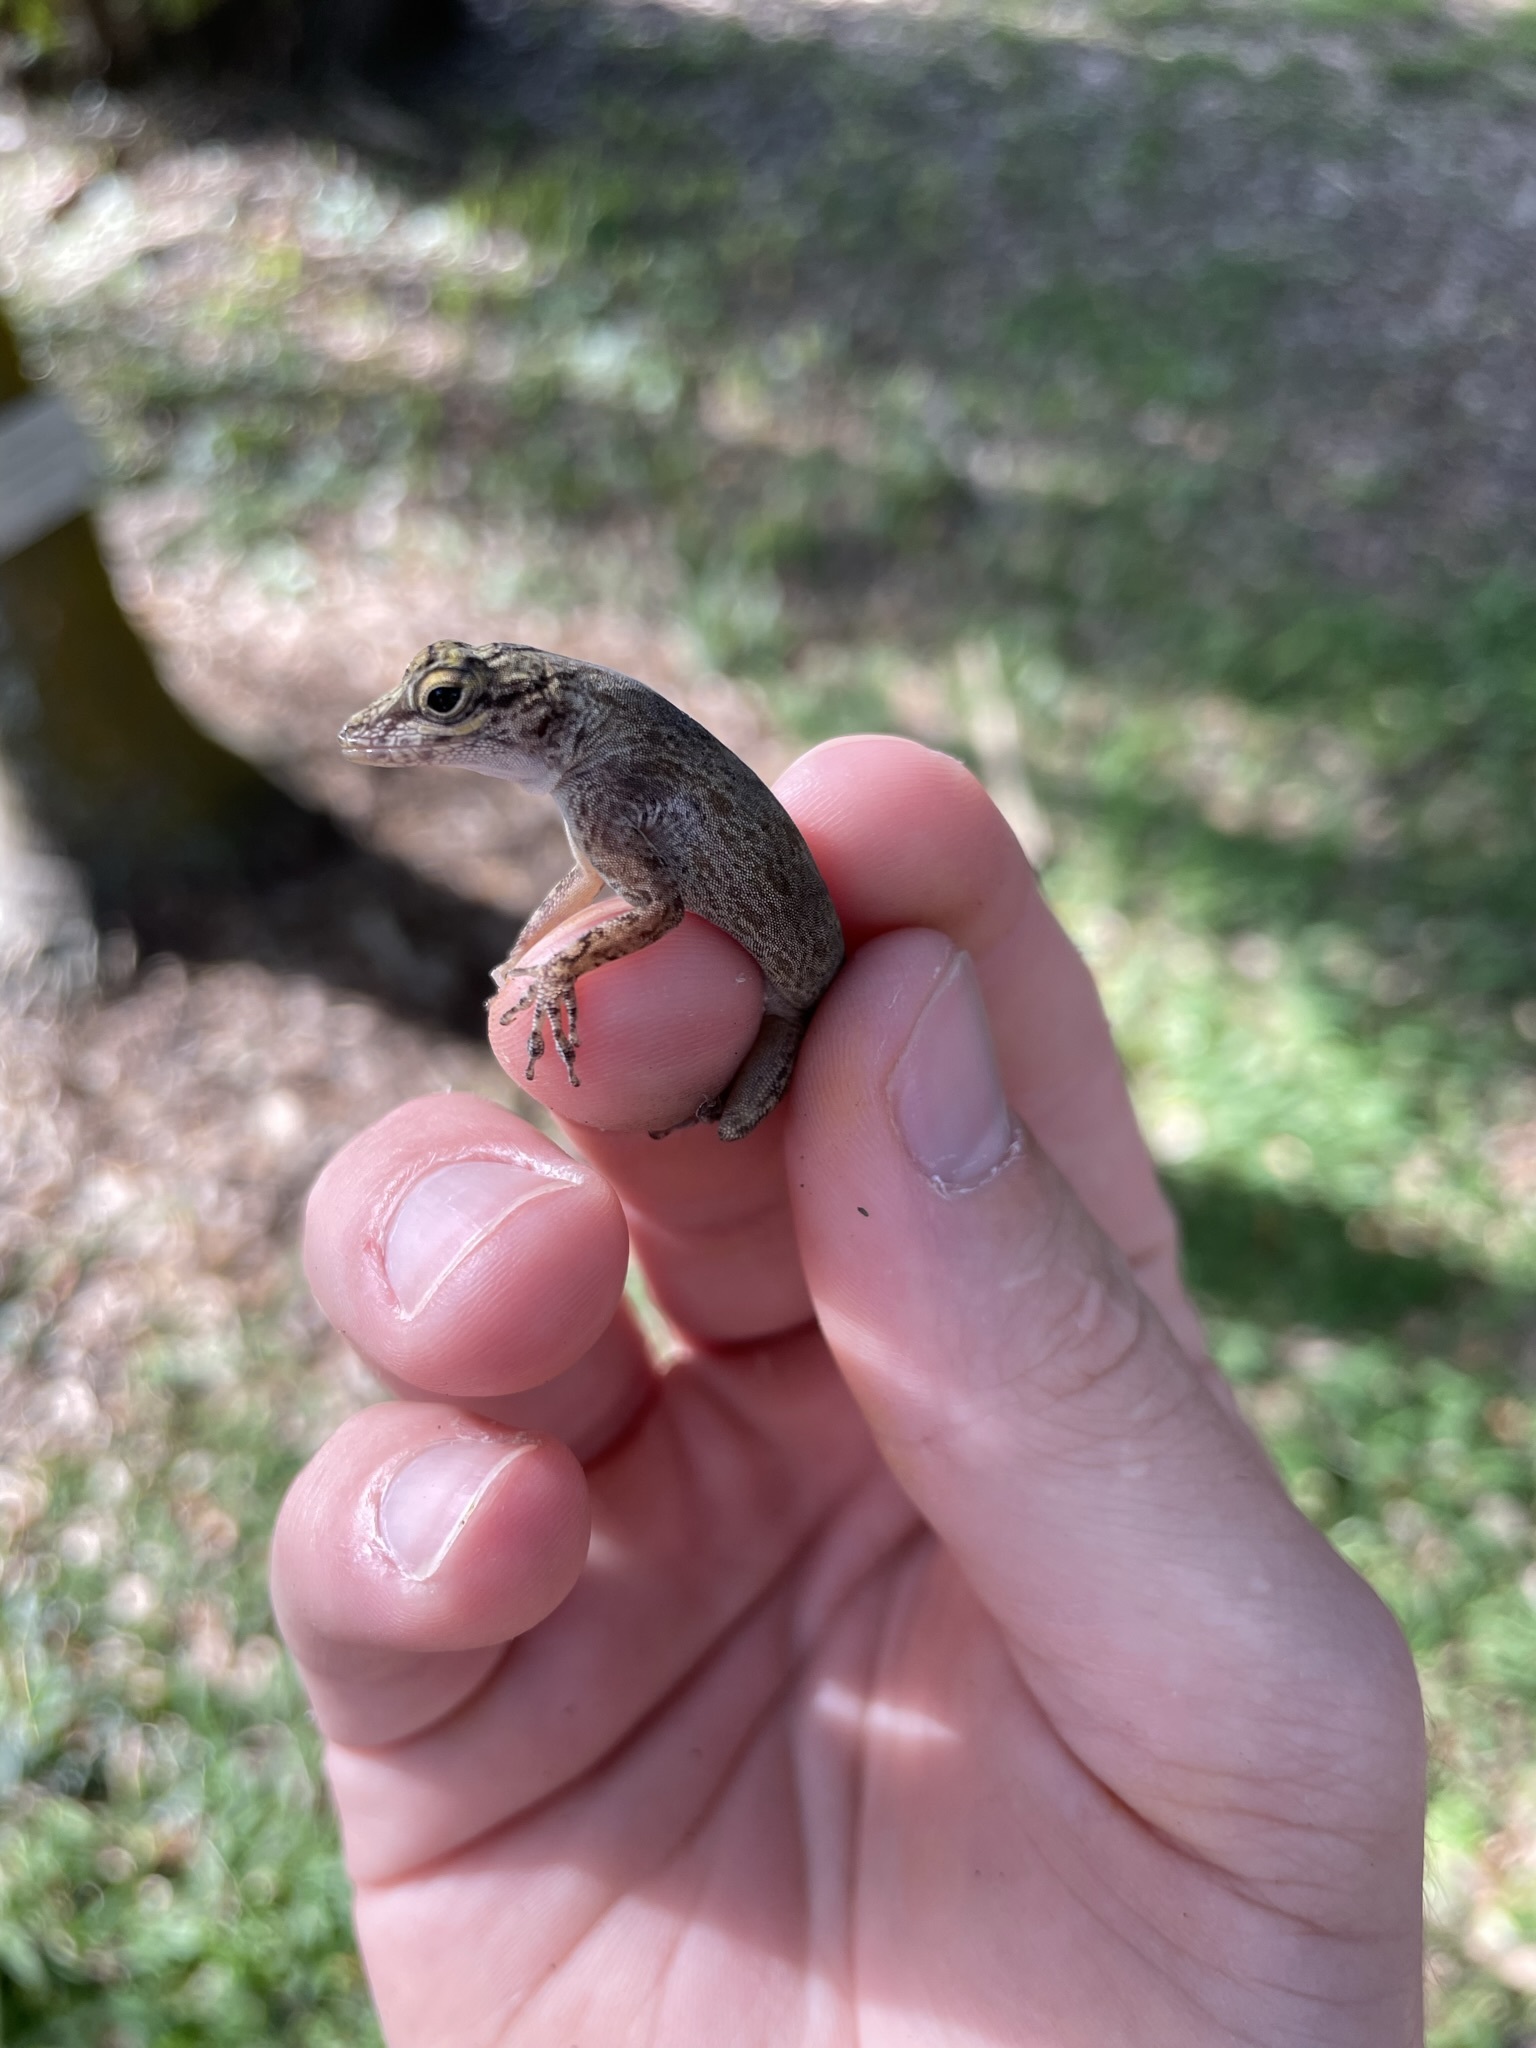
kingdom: Animalia
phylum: Chordata
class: Squamata
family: Dactyloidae
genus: Anolis
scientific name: Anolis distichus
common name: Bark anole
